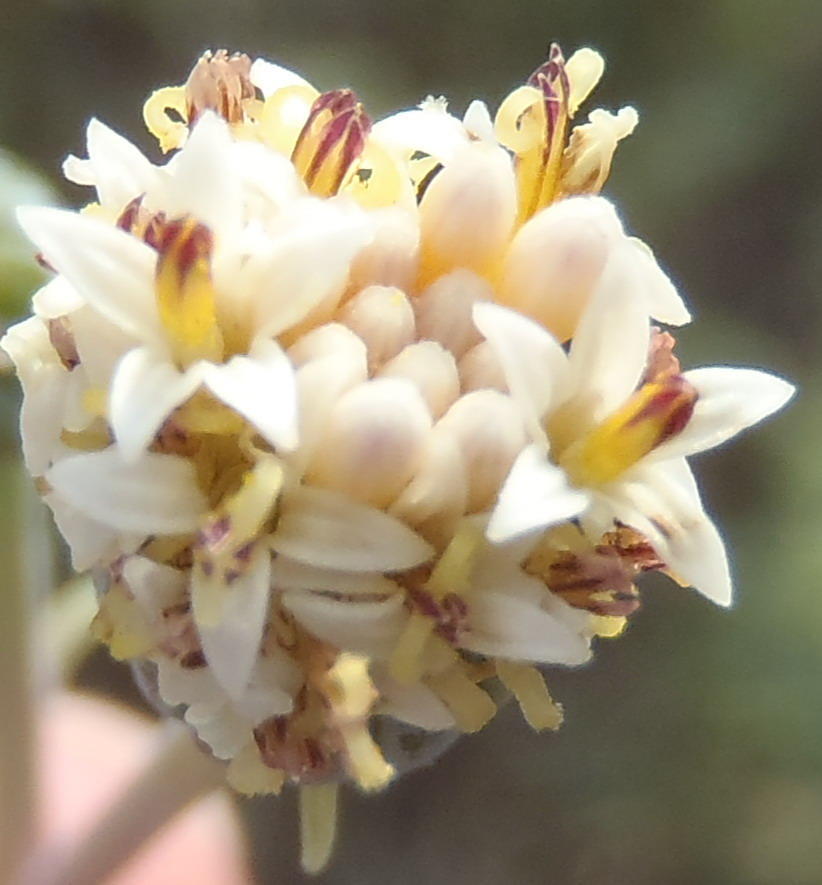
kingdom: Plantae
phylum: Tracheophyta
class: Magnoliopsida
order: Asterales
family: Asteraceae
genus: Curio
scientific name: Curio talinoides
